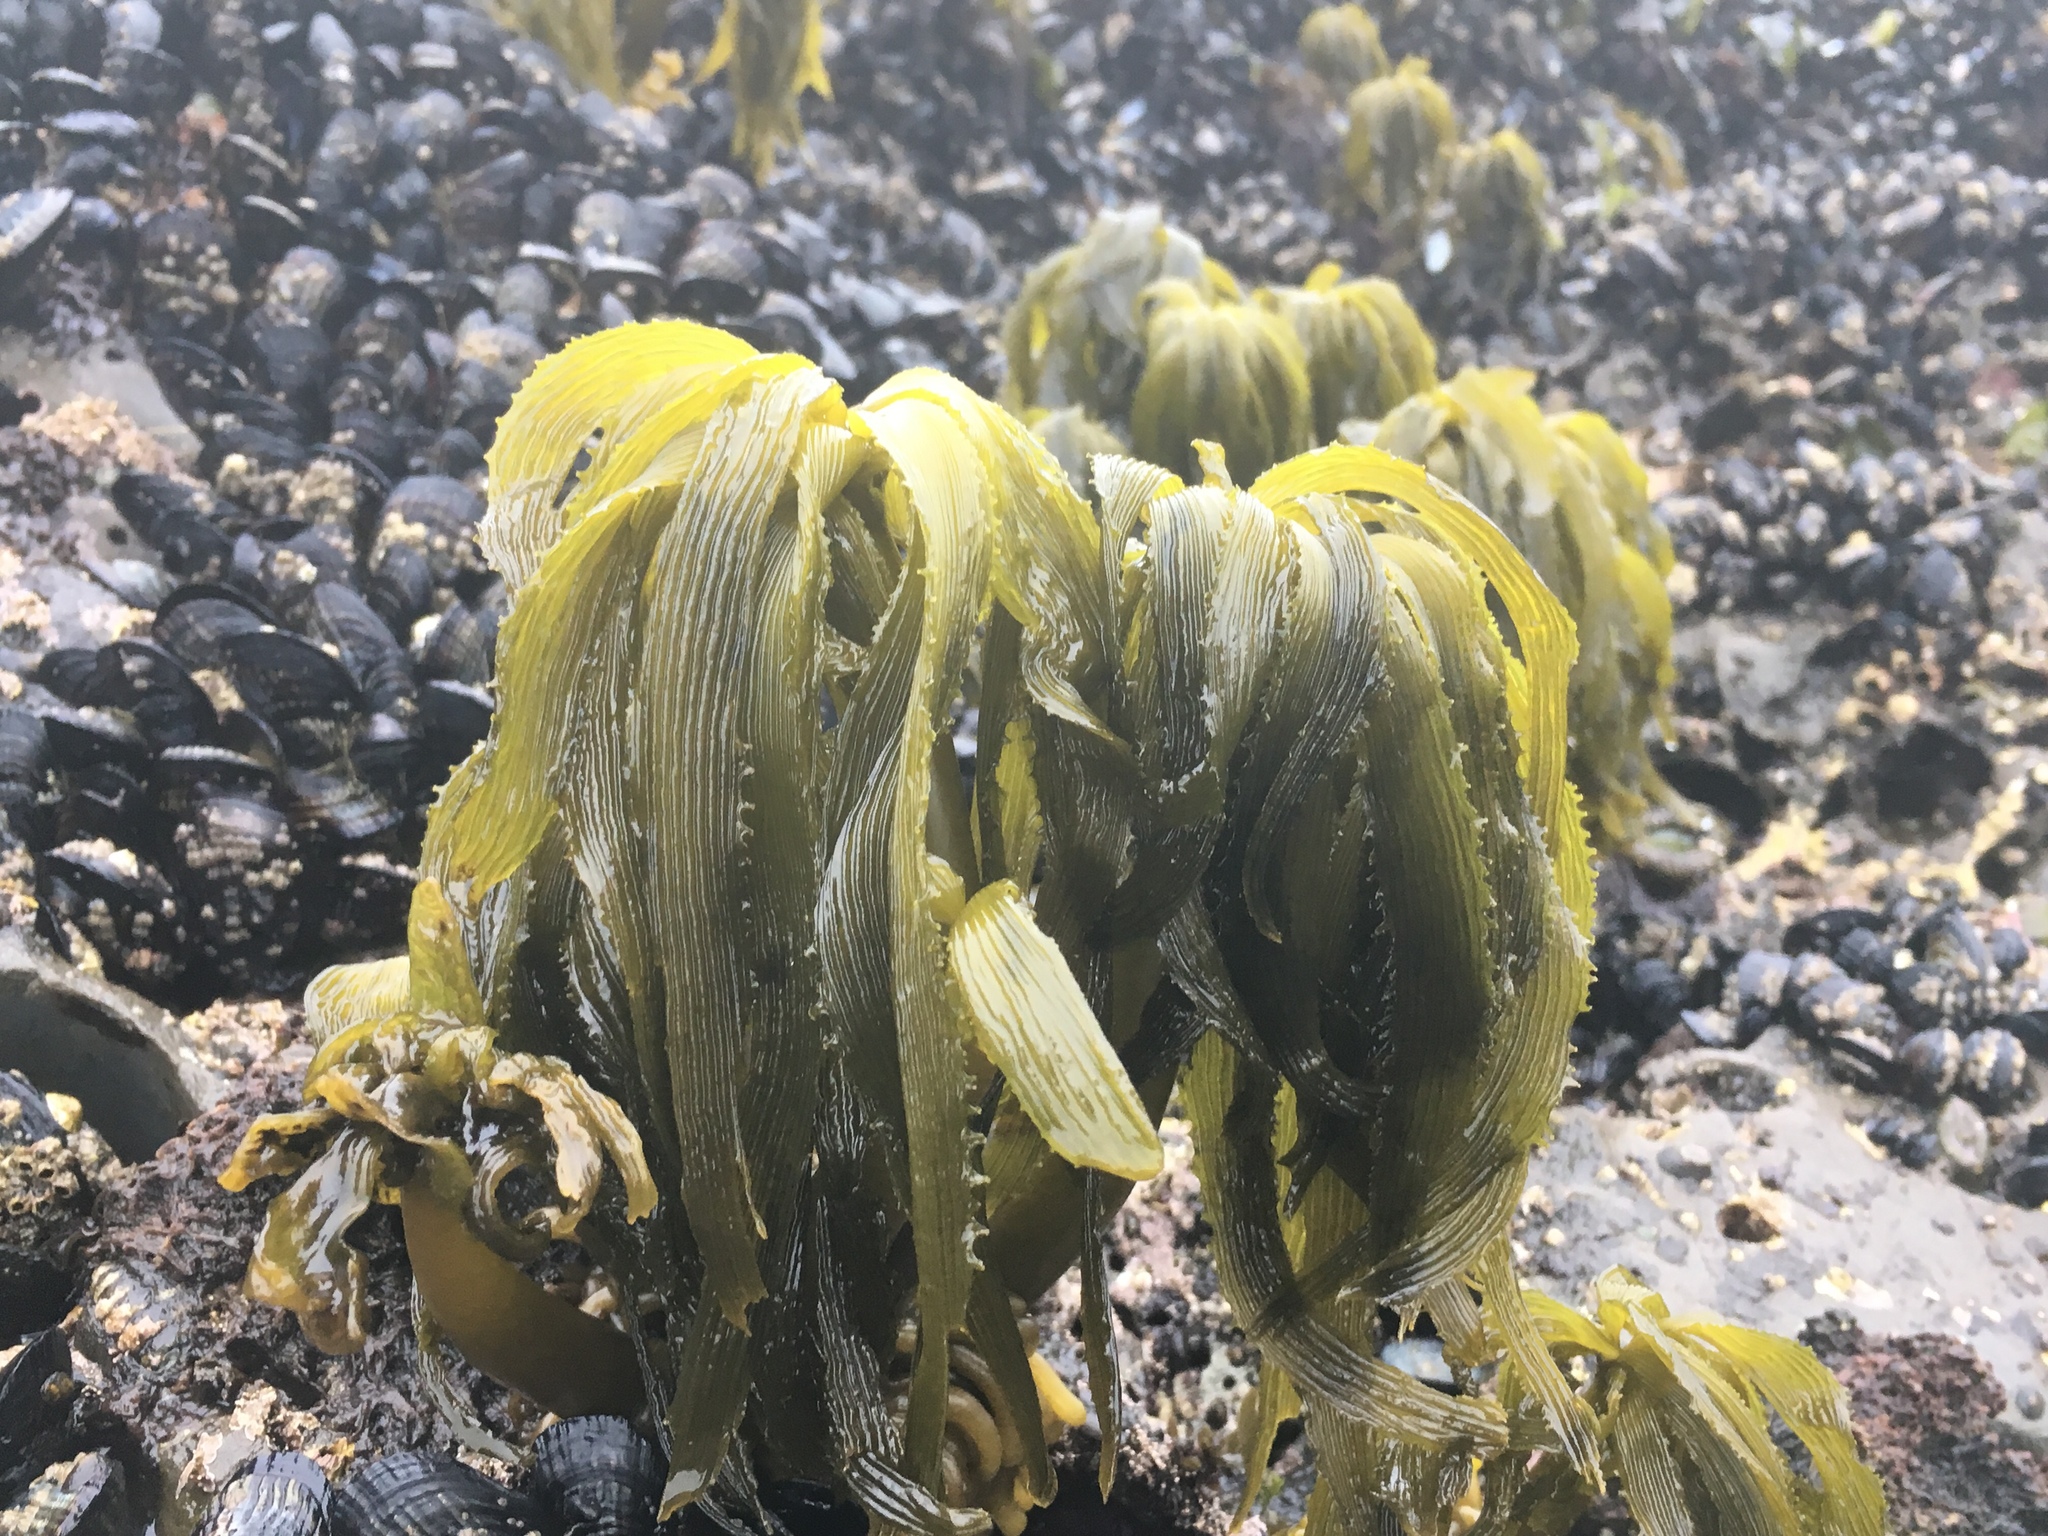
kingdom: Chromista
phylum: Ochrophyta
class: Phaeophyceae
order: Laminariales
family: Laminariaceae
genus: Postelsia
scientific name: Postelsia palmiformis
